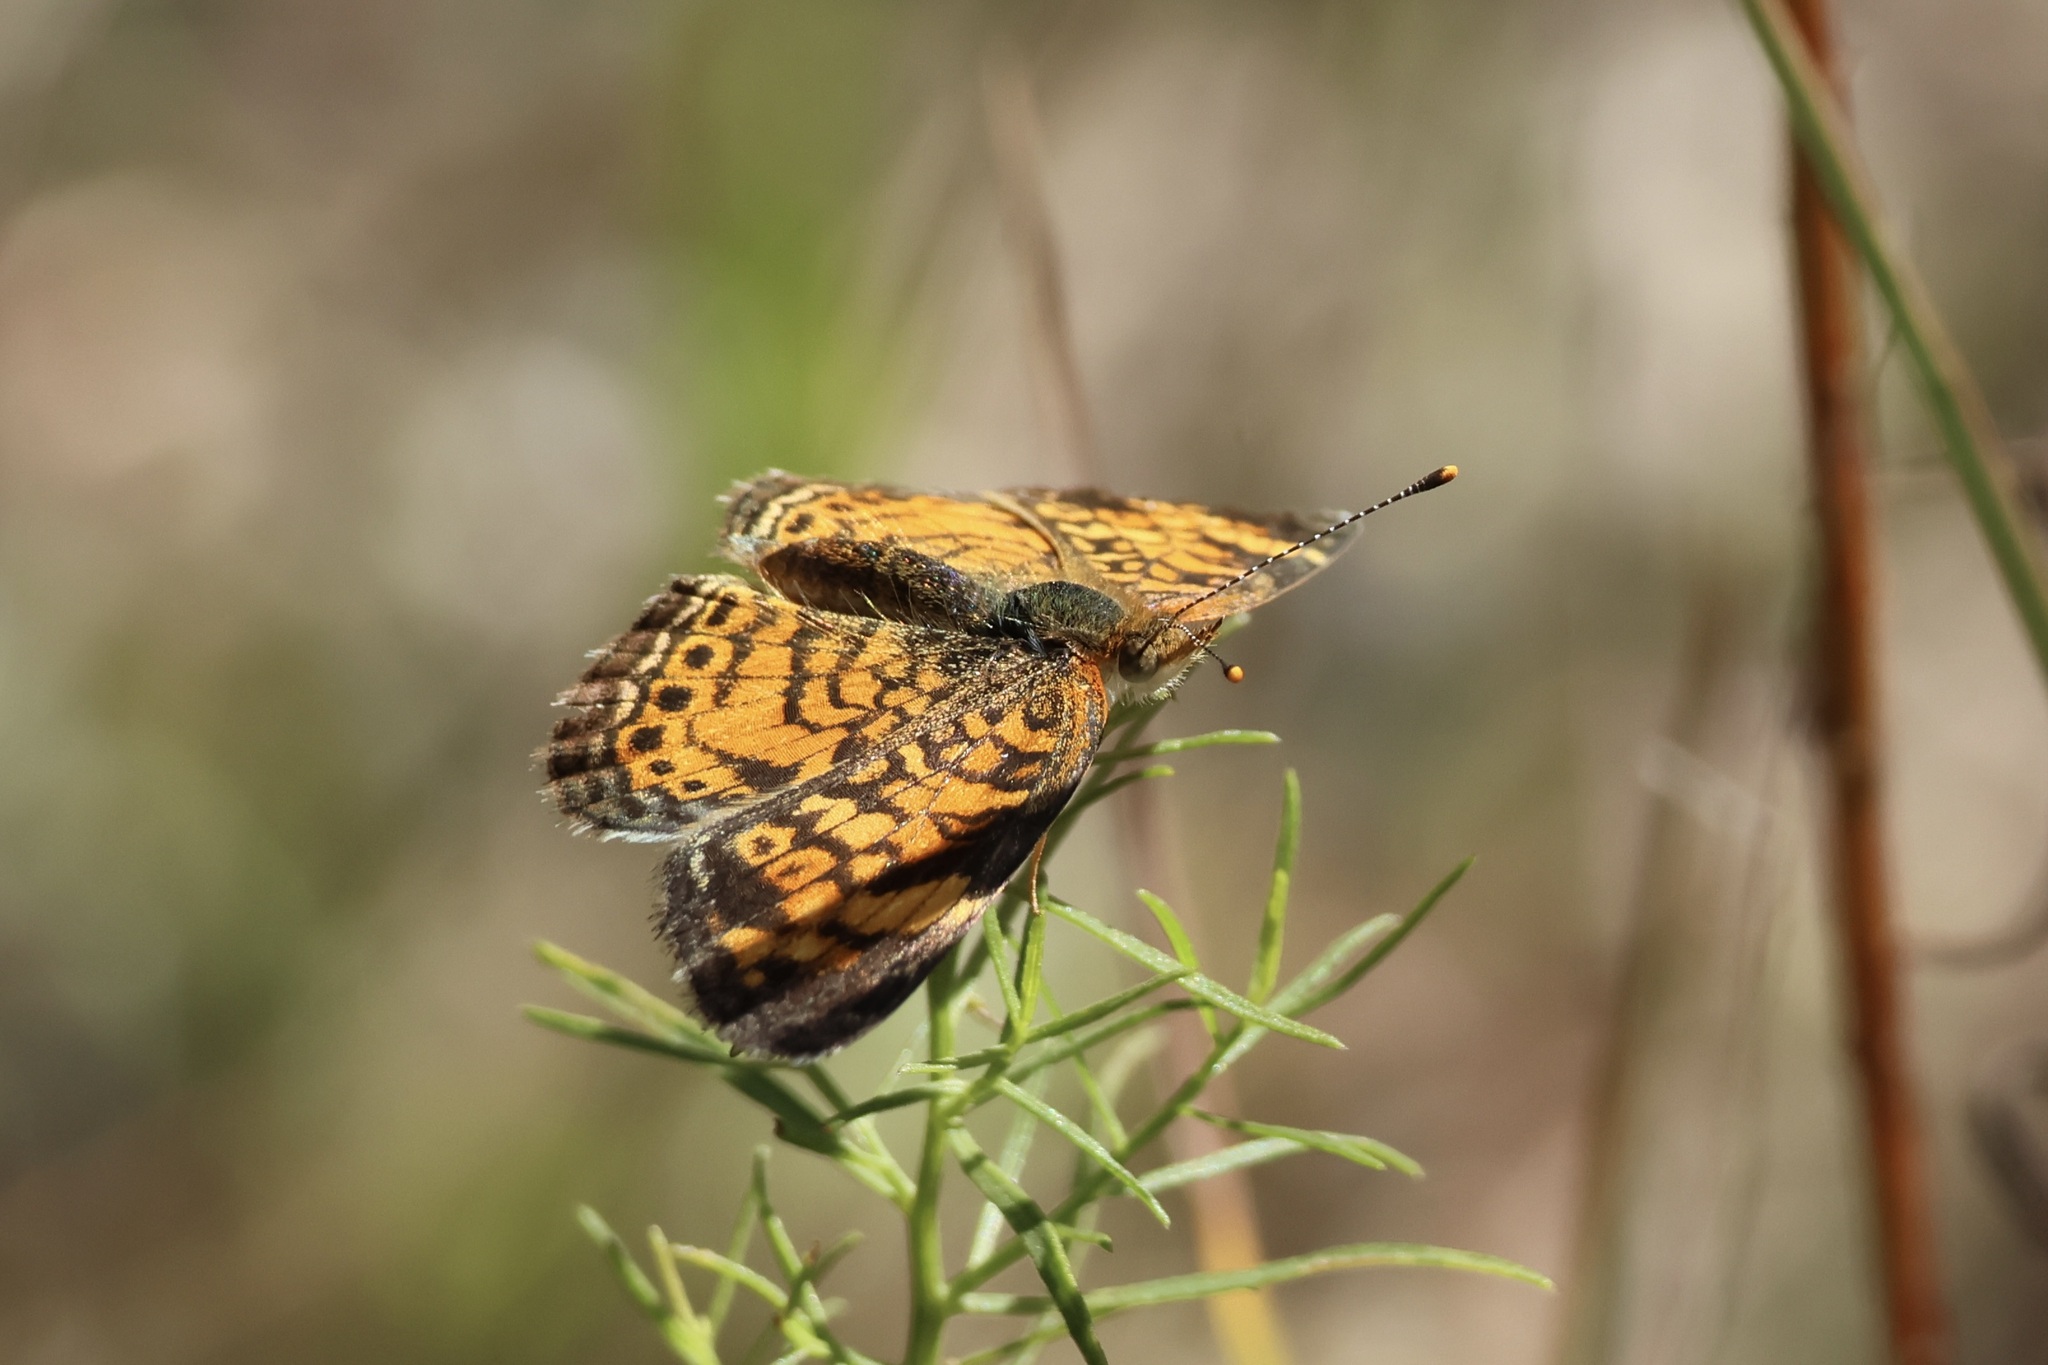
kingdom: Animalia
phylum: Arthropoda
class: Insecta
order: Lepidoptera
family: Nymphalidae
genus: Phyciodes
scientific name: Phyciodes tharos
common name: Pearl crescent
